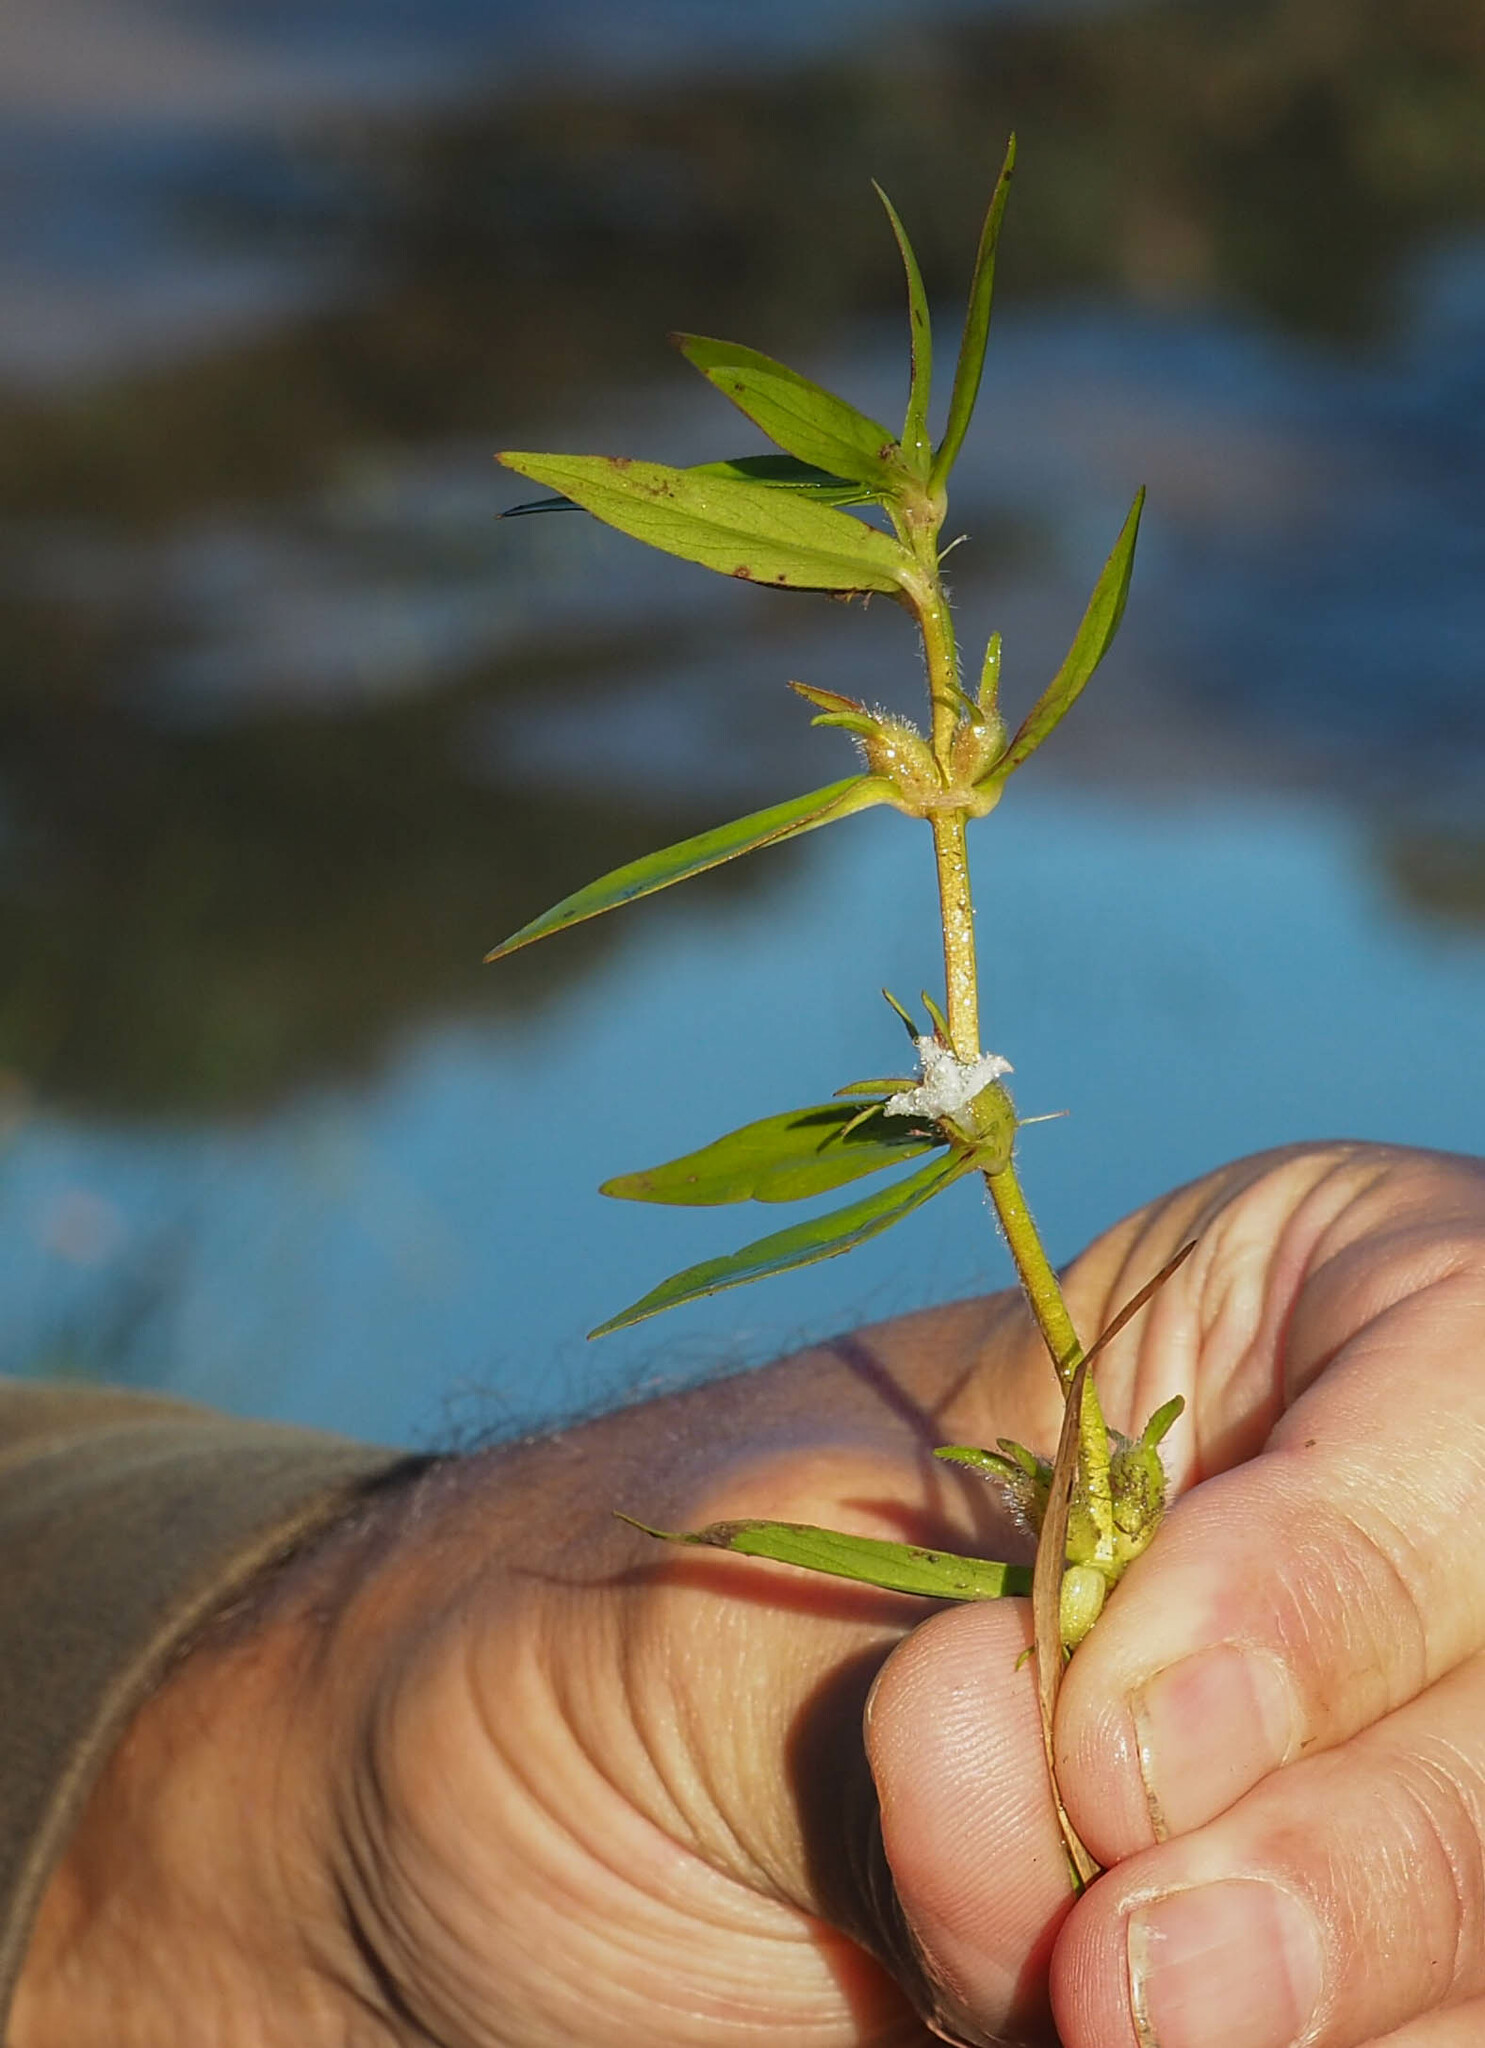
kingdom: Plantae
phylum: Tracheophyta
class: Magnoliopsida
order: Gentianales
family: Rubiaceae
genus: Hexasepalum
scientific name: Hexasepalum teres
